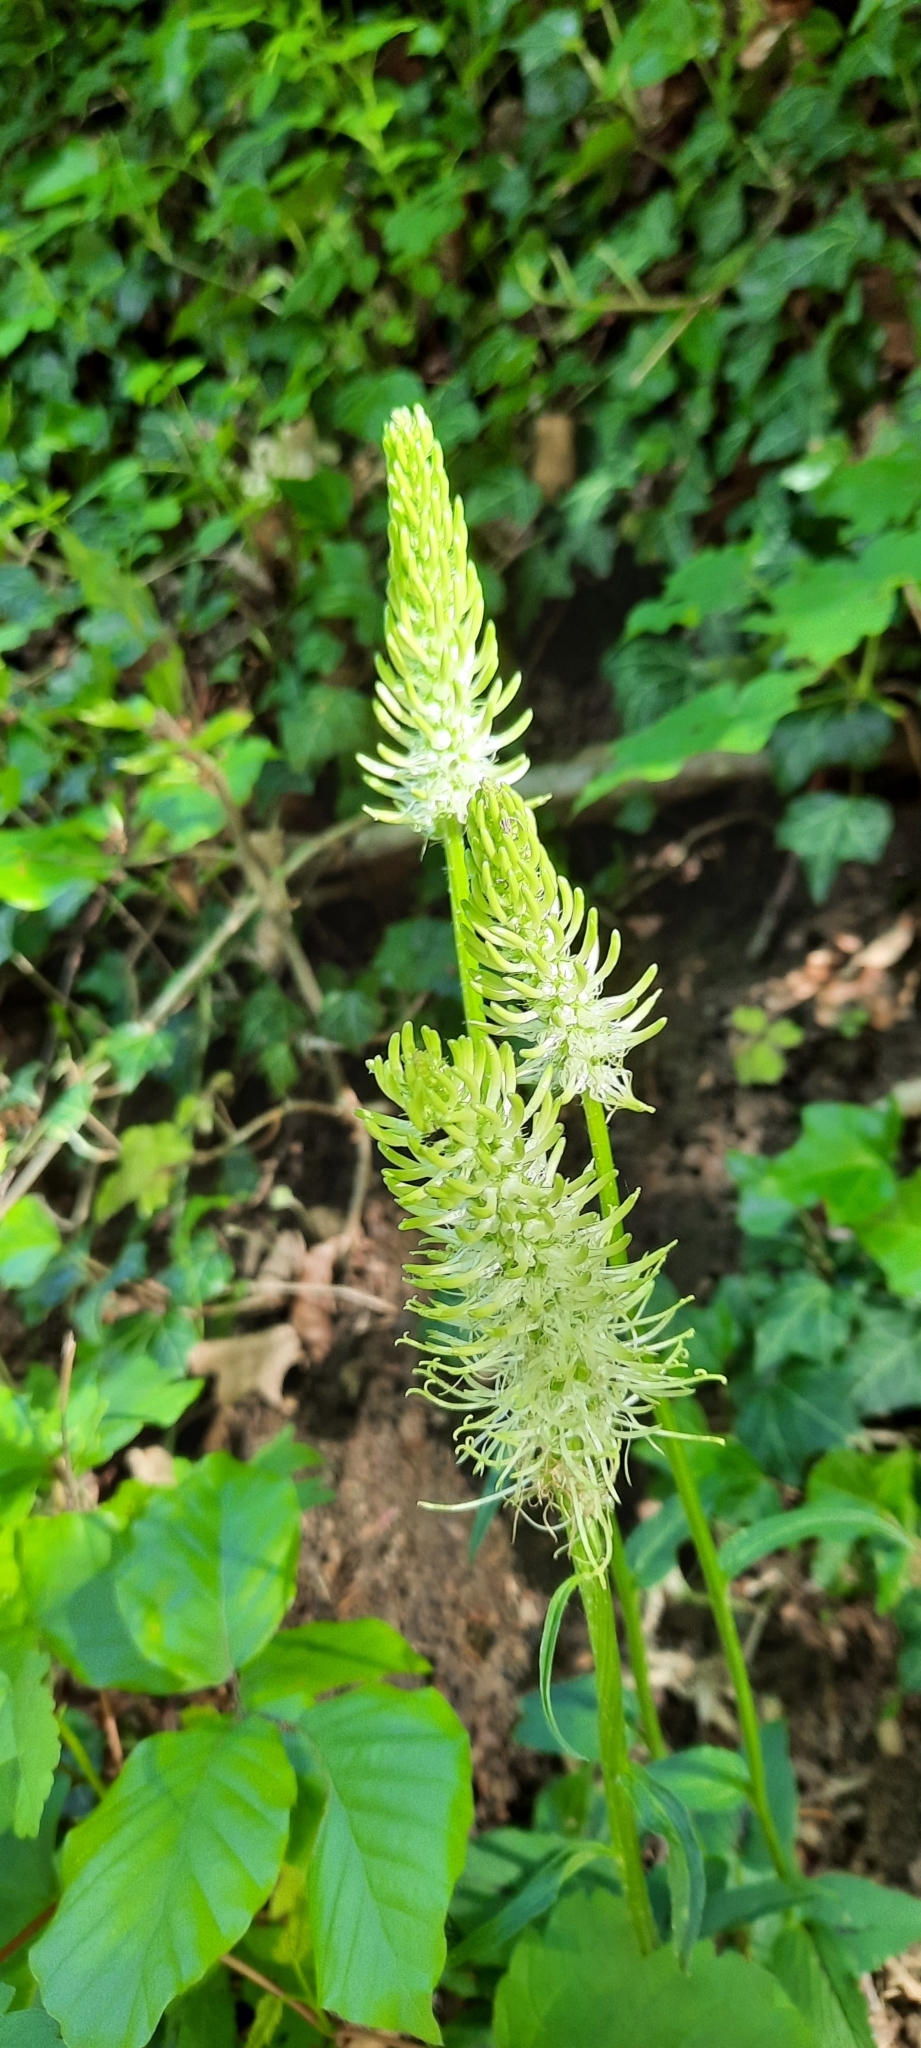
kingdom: Plantae
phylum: Tracheophyta
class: Magnoliopsida
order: Asterales
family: Campanulaceae
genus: Phyteuma
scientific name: Phyteuma spicatum
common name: Spiked rampion
